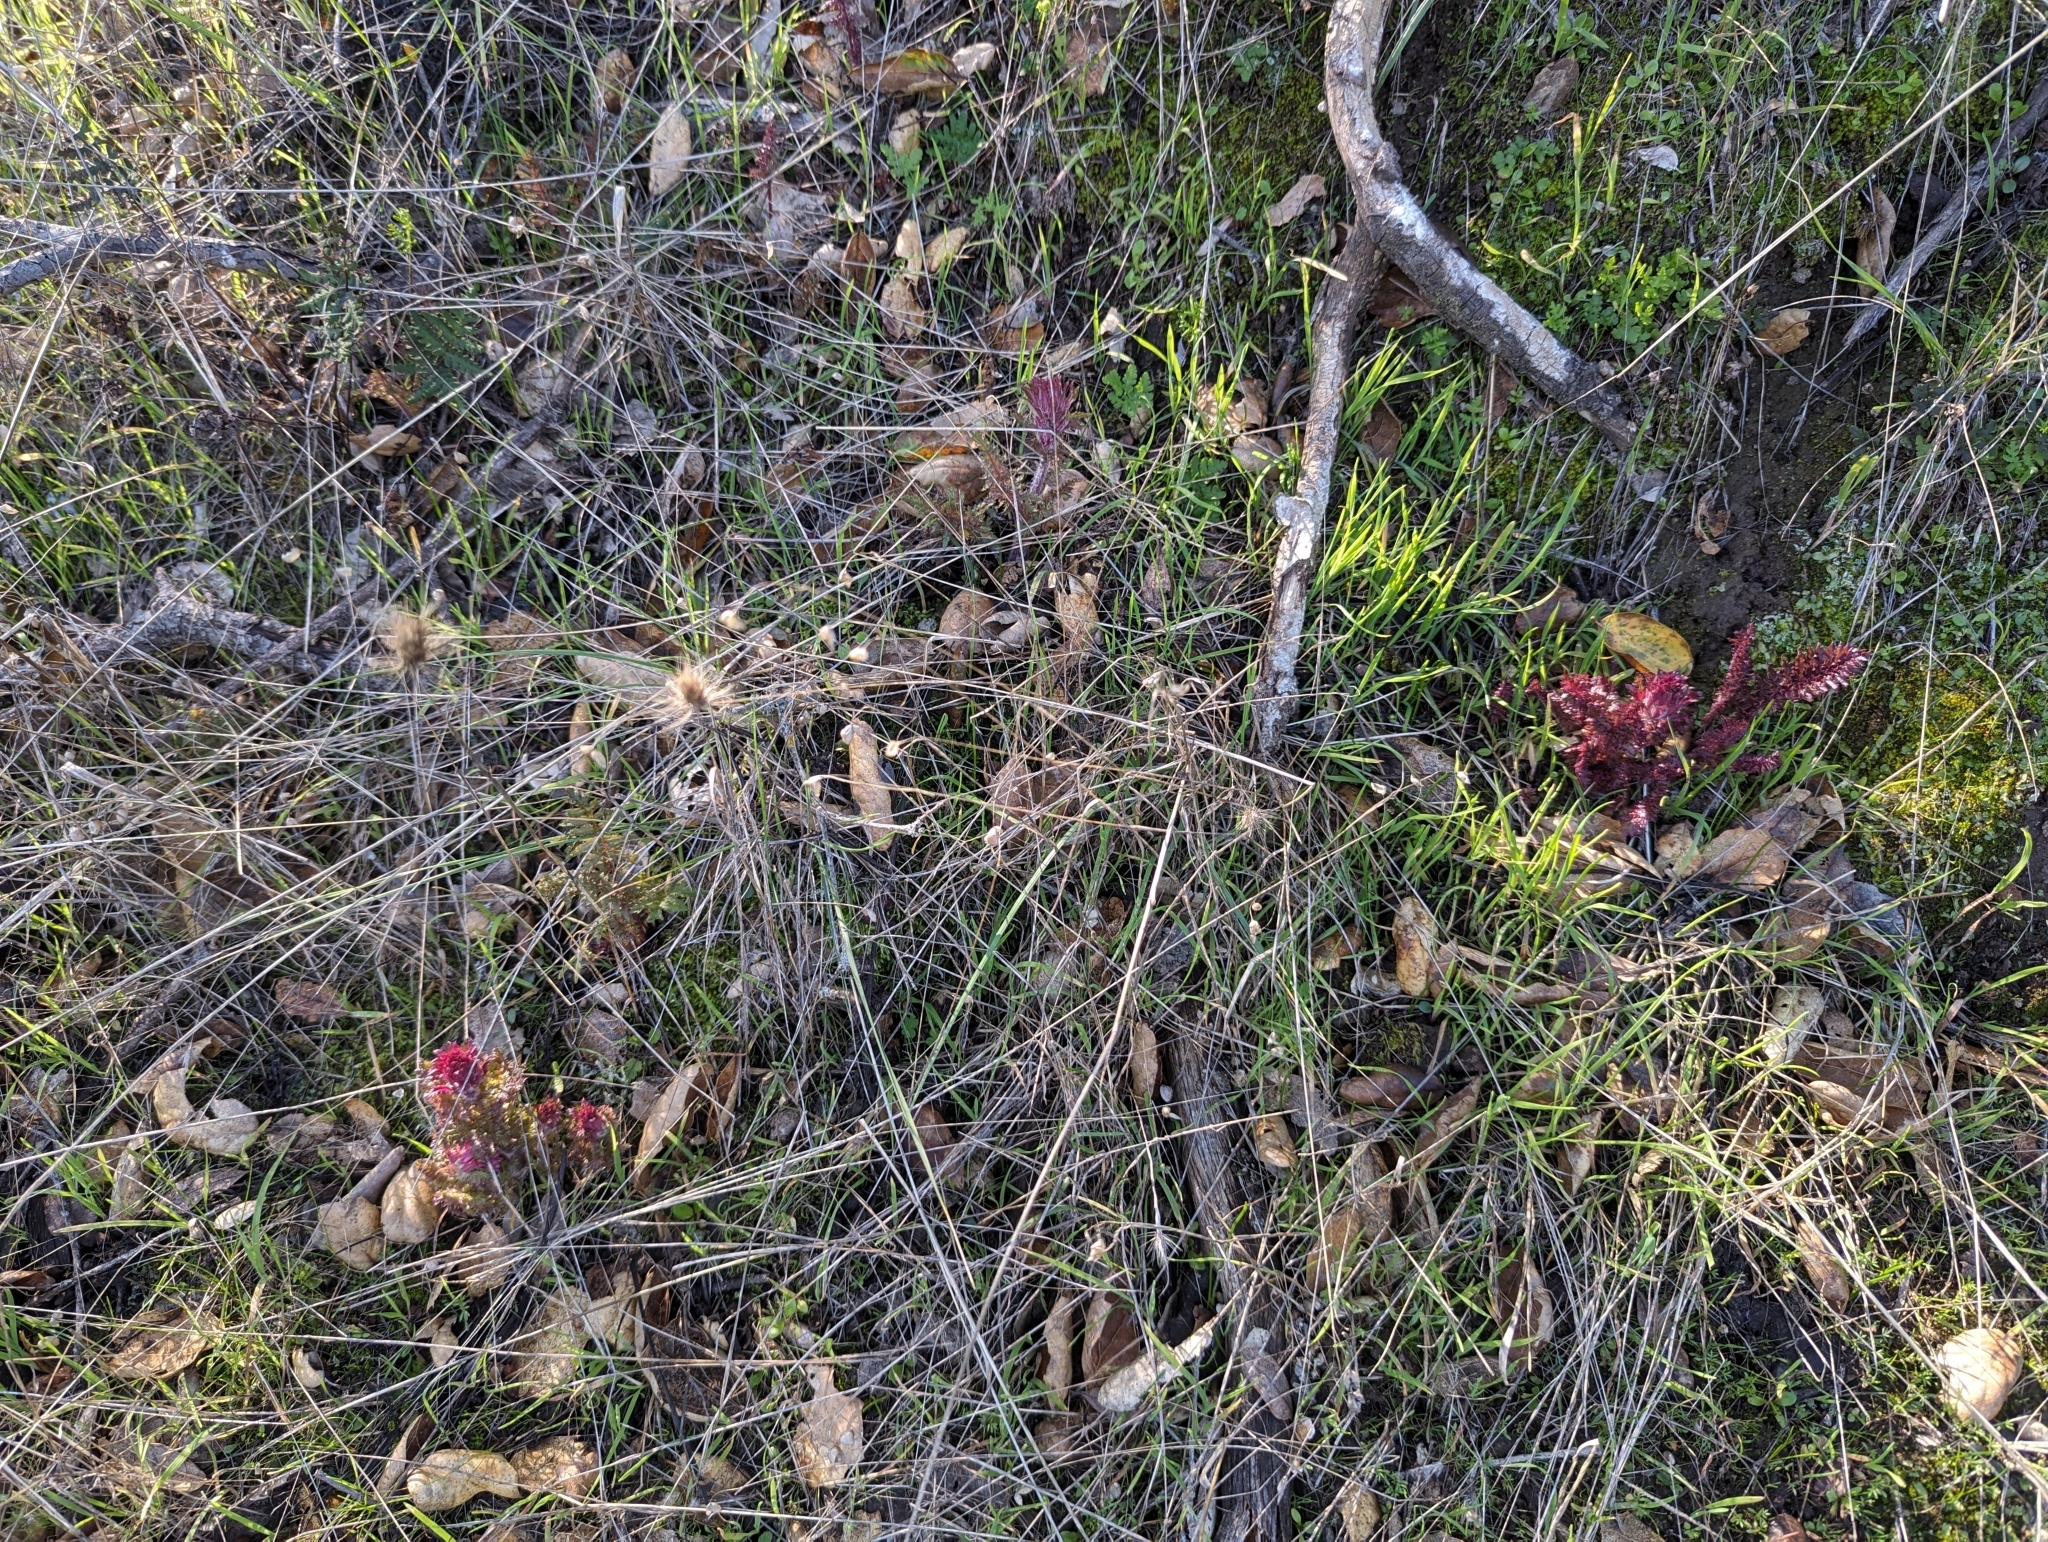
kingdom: Plantae
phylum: Tracheophyta
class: Magnoliopsida
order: Lamiales
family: Orobanchaceae
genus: Pedicularis
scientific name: Pedicularis densiflora
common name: Indian warrior
